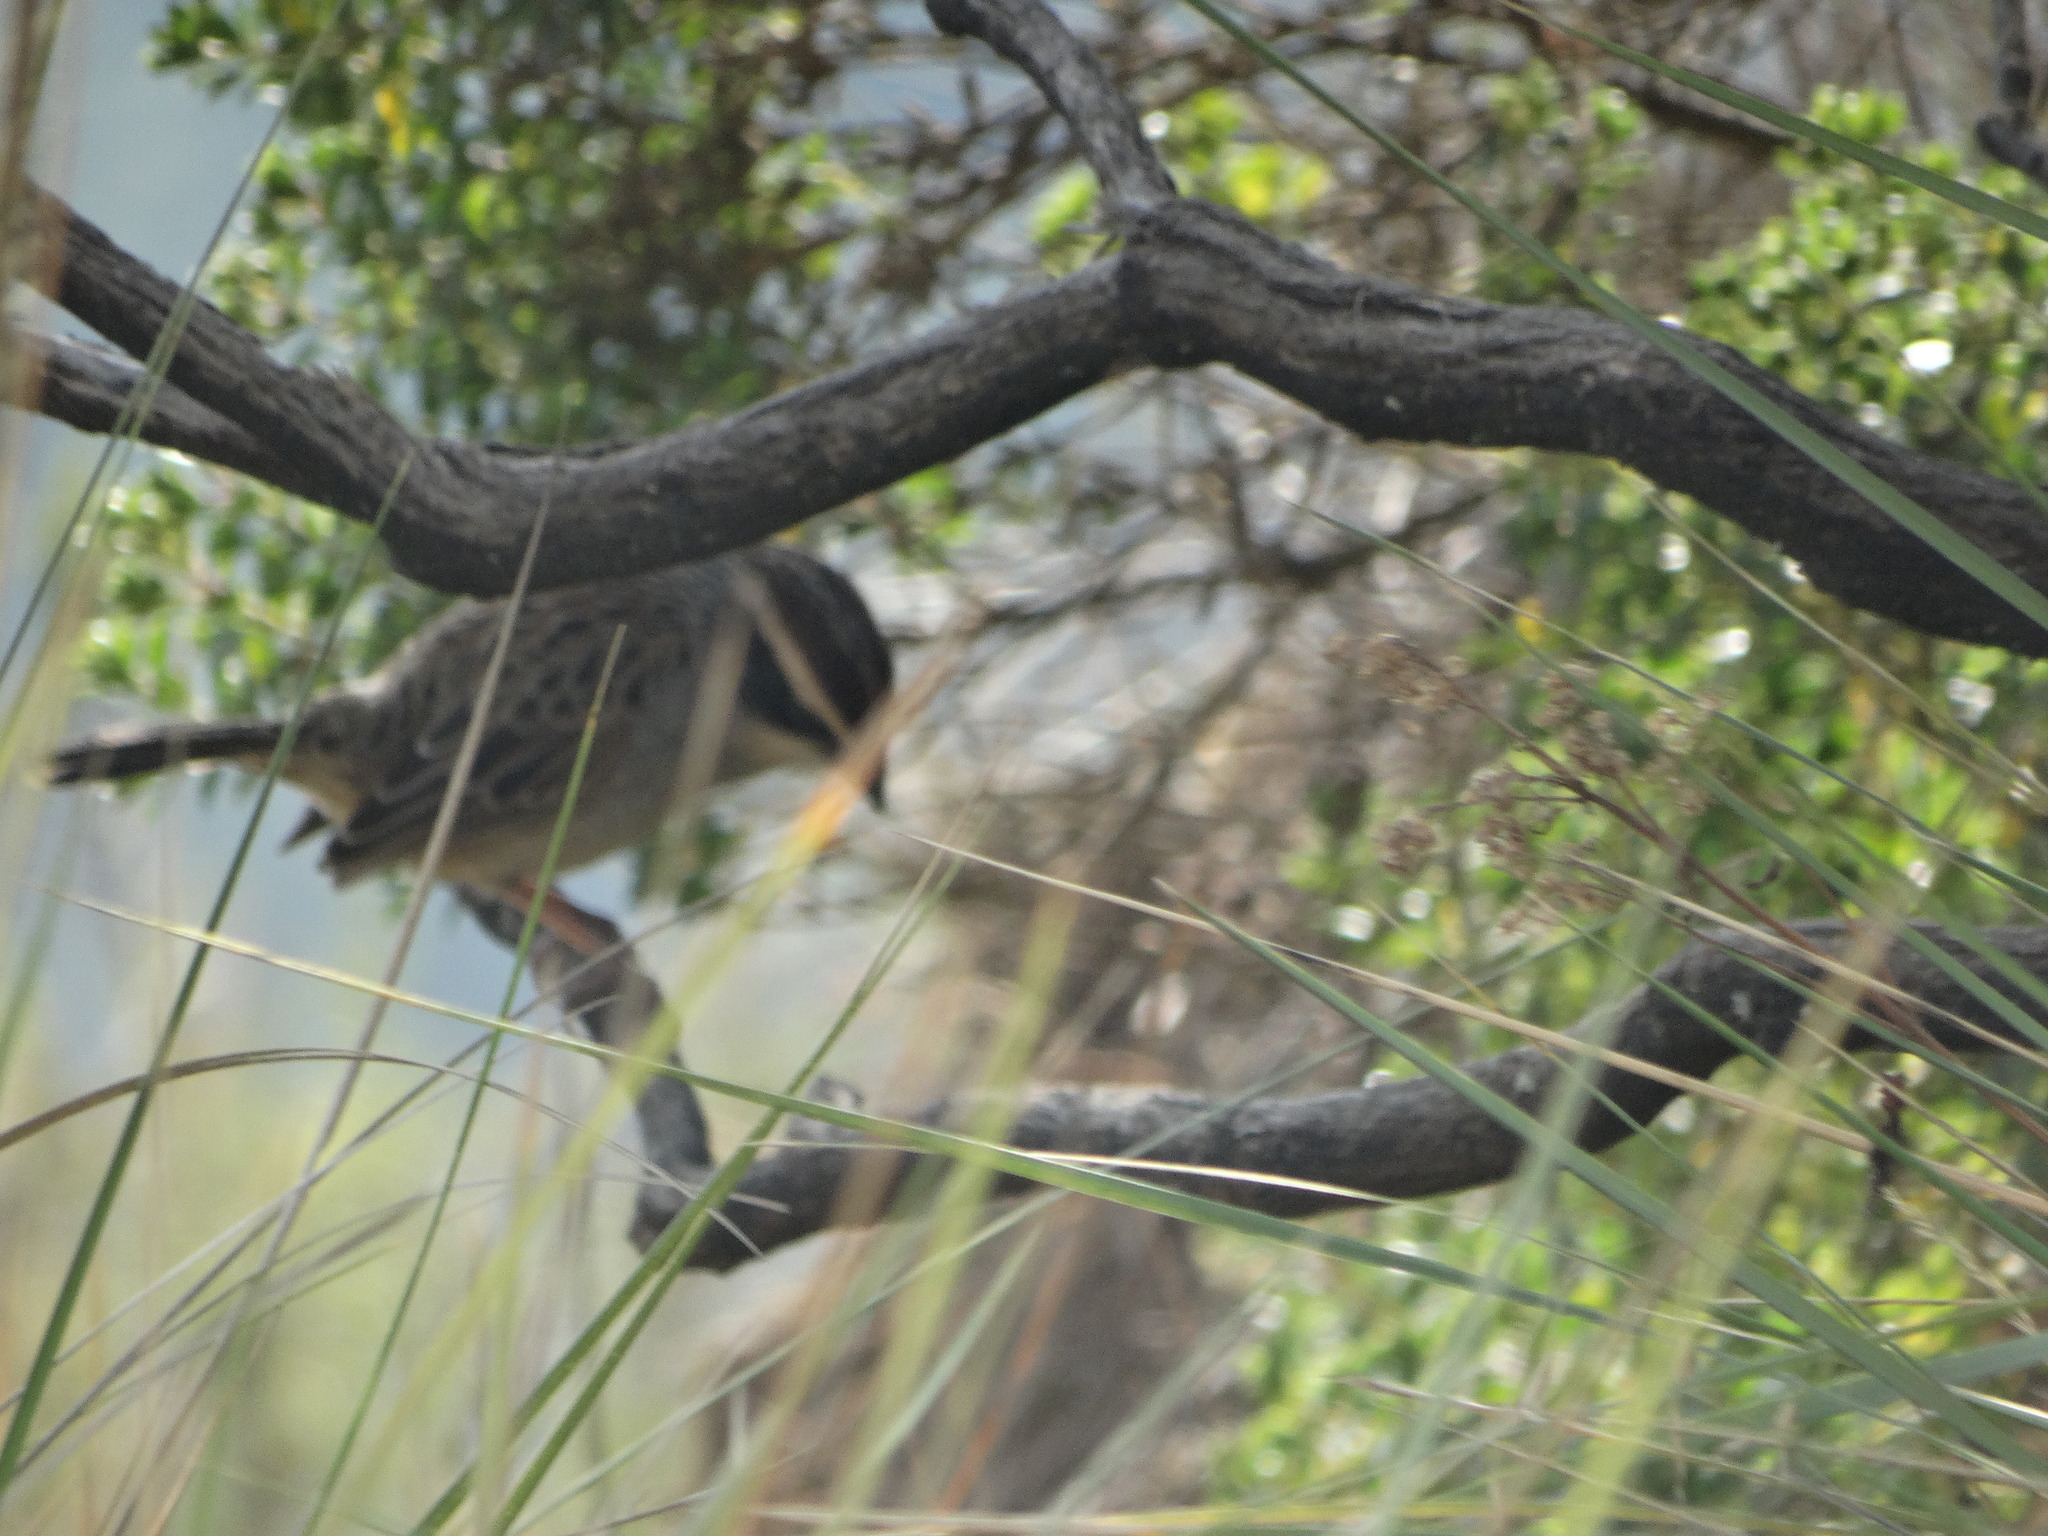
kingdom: Animalia
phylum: Chordata
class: Aves
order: Passeriformes
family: Passerellidae
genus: Oriturus
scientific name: Oriturus superciliosus
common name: Striped sparrow
